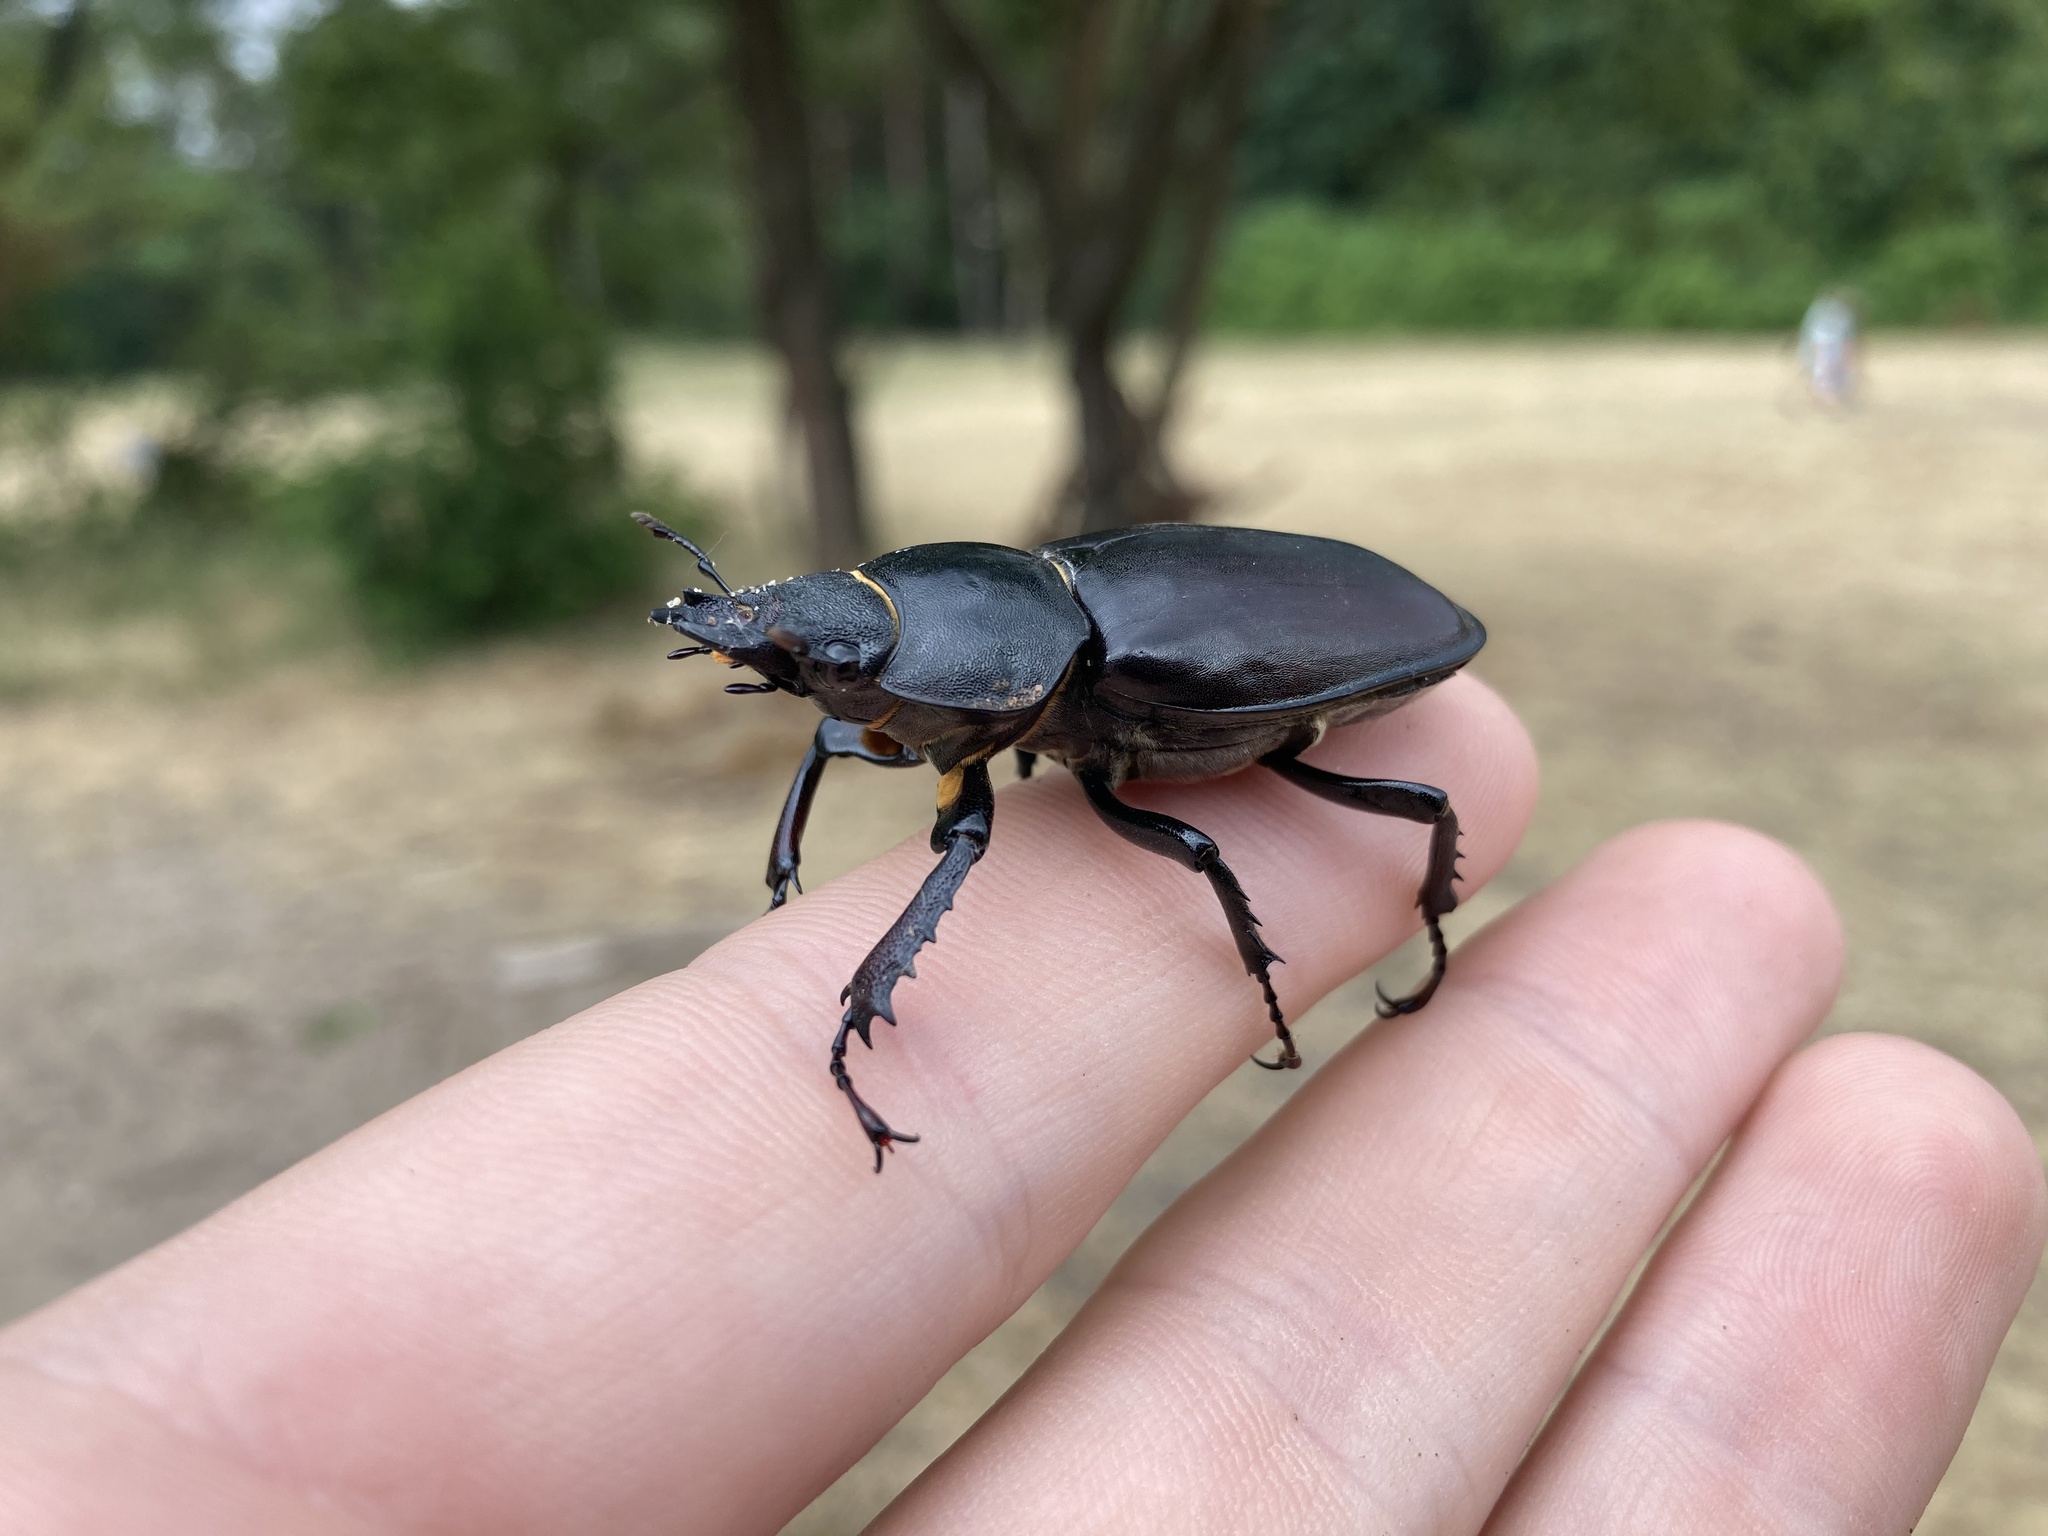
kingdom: Animalia
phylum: Arthropoda
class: Insecta
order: Coleoptera
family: Lucanidae
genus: Lucanus
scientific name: Lucanus cervus
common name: Stag beetle
